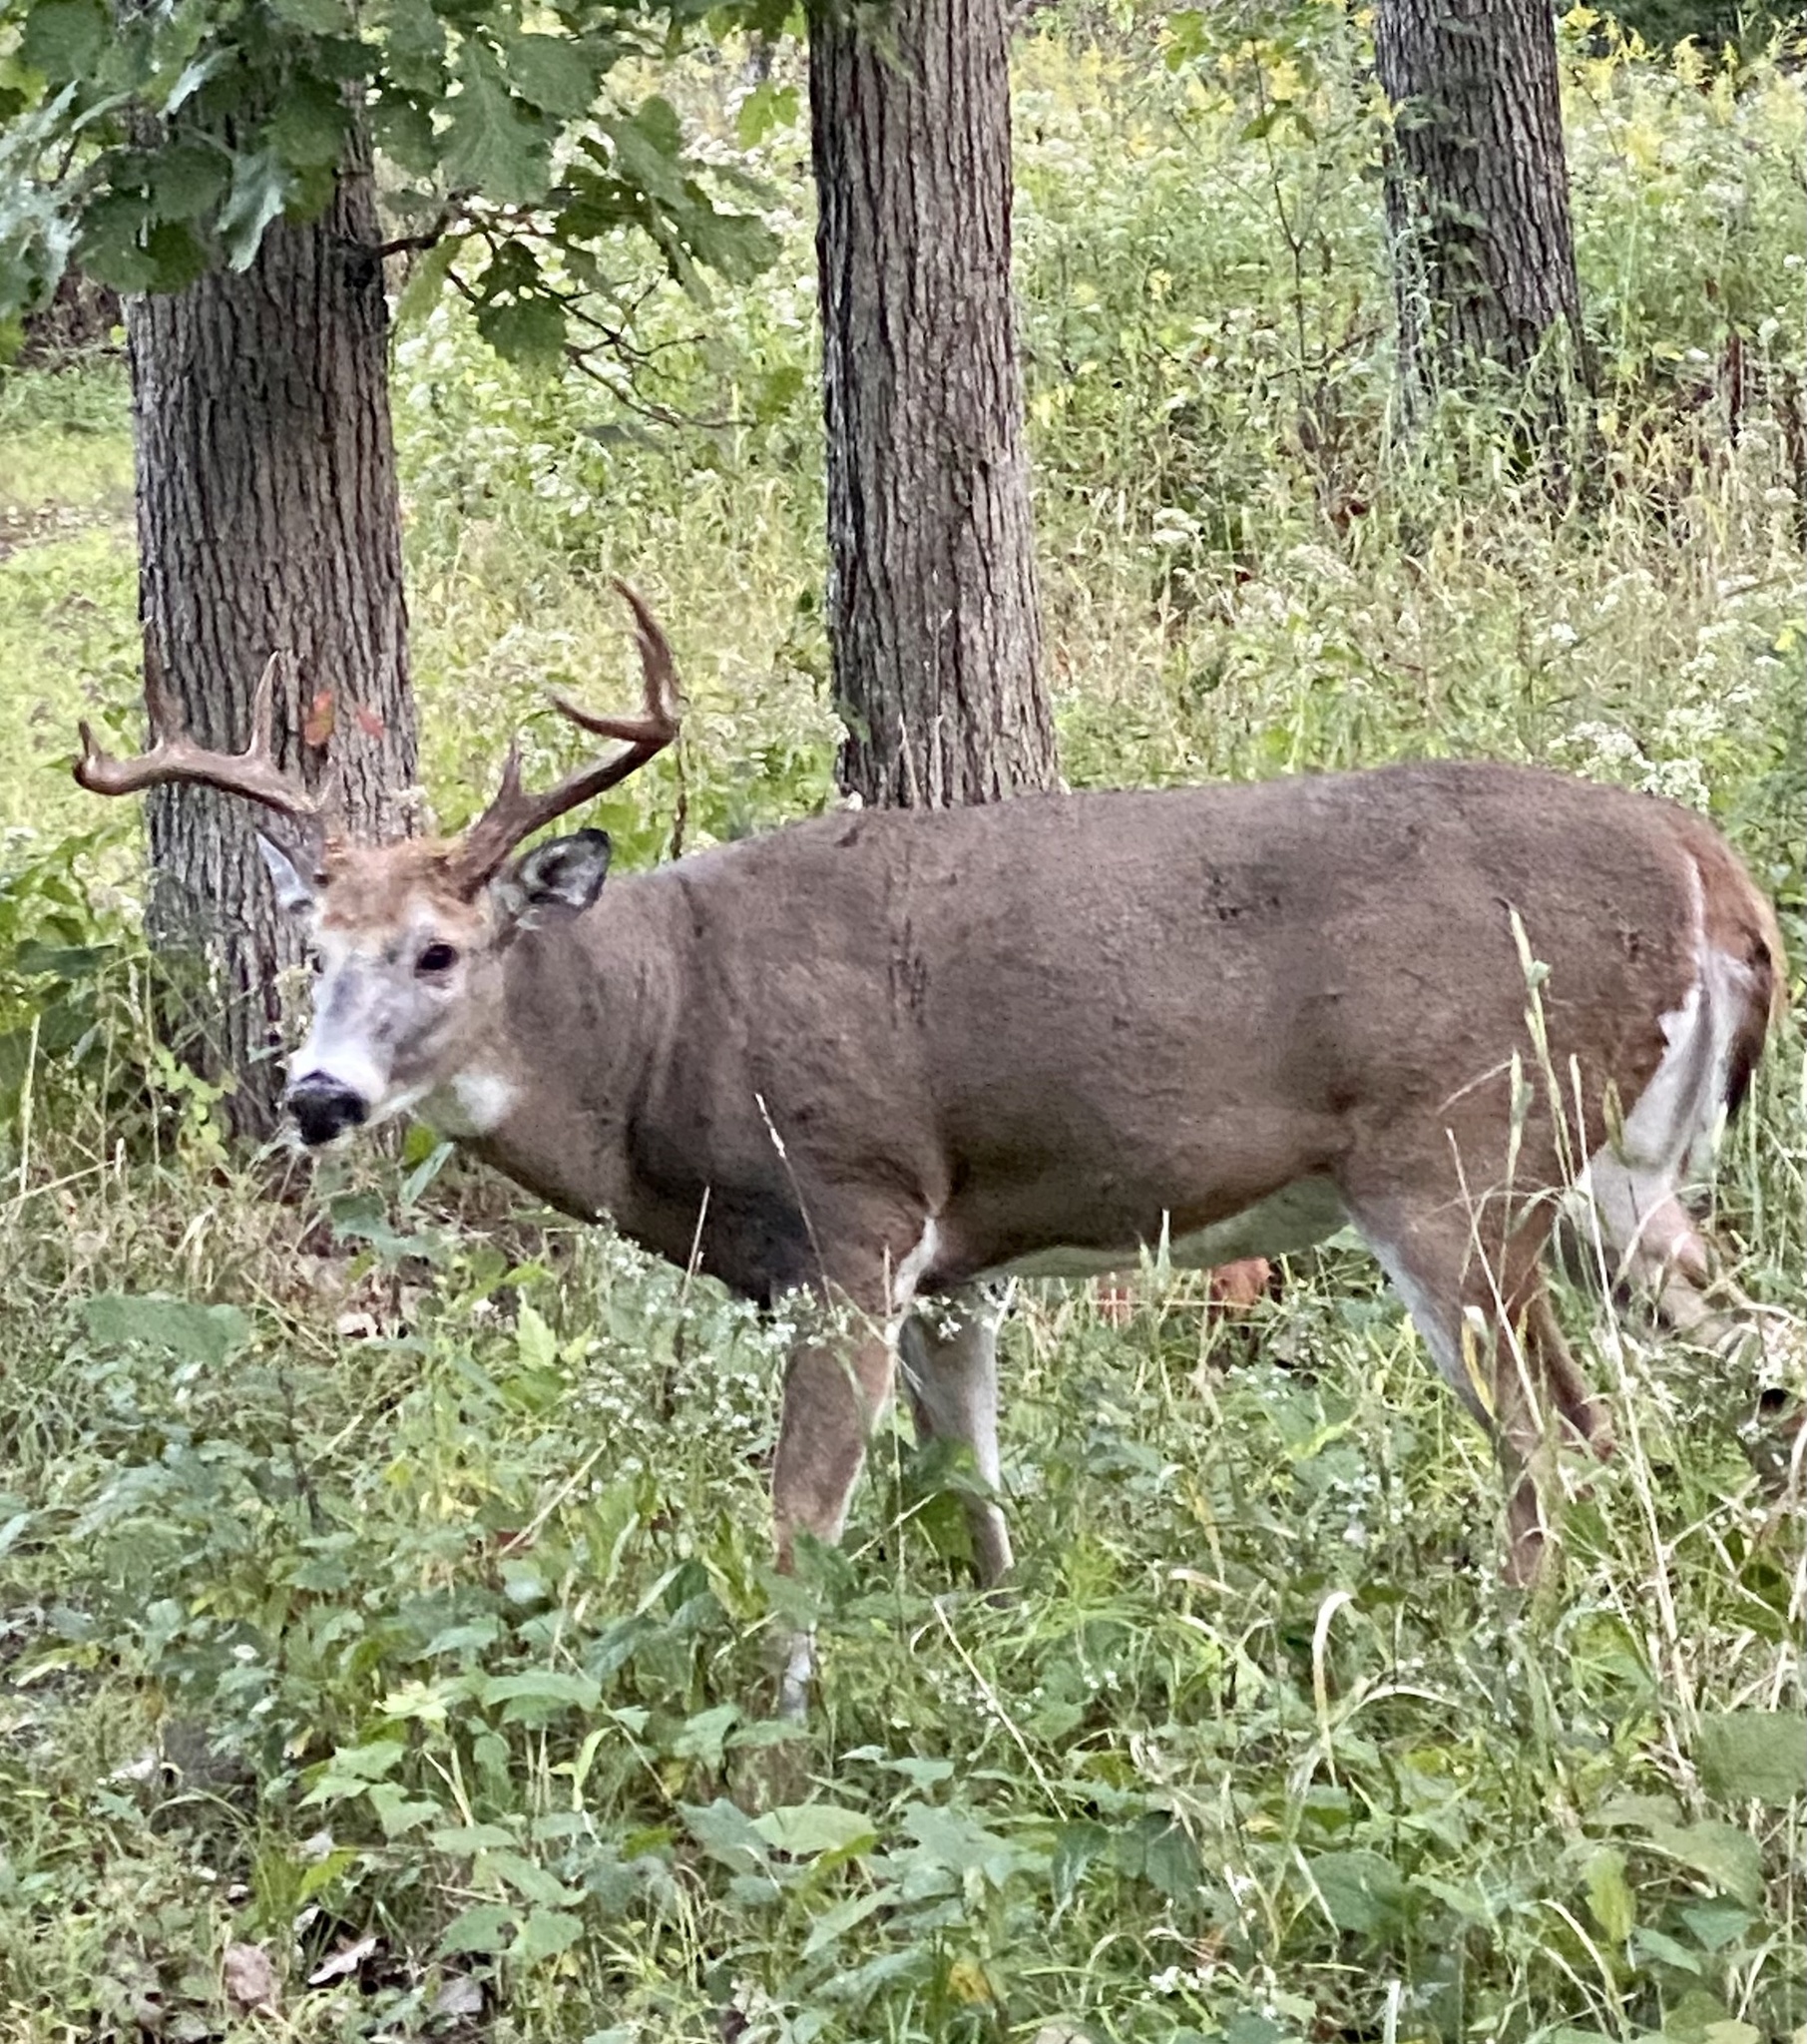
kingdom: Animalia
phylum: Chordata
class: Mammalia
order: Artiodactyla
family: Cervidae
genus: Odocoileus
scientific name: Odocoileus virginianus
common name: White-tailed deer
